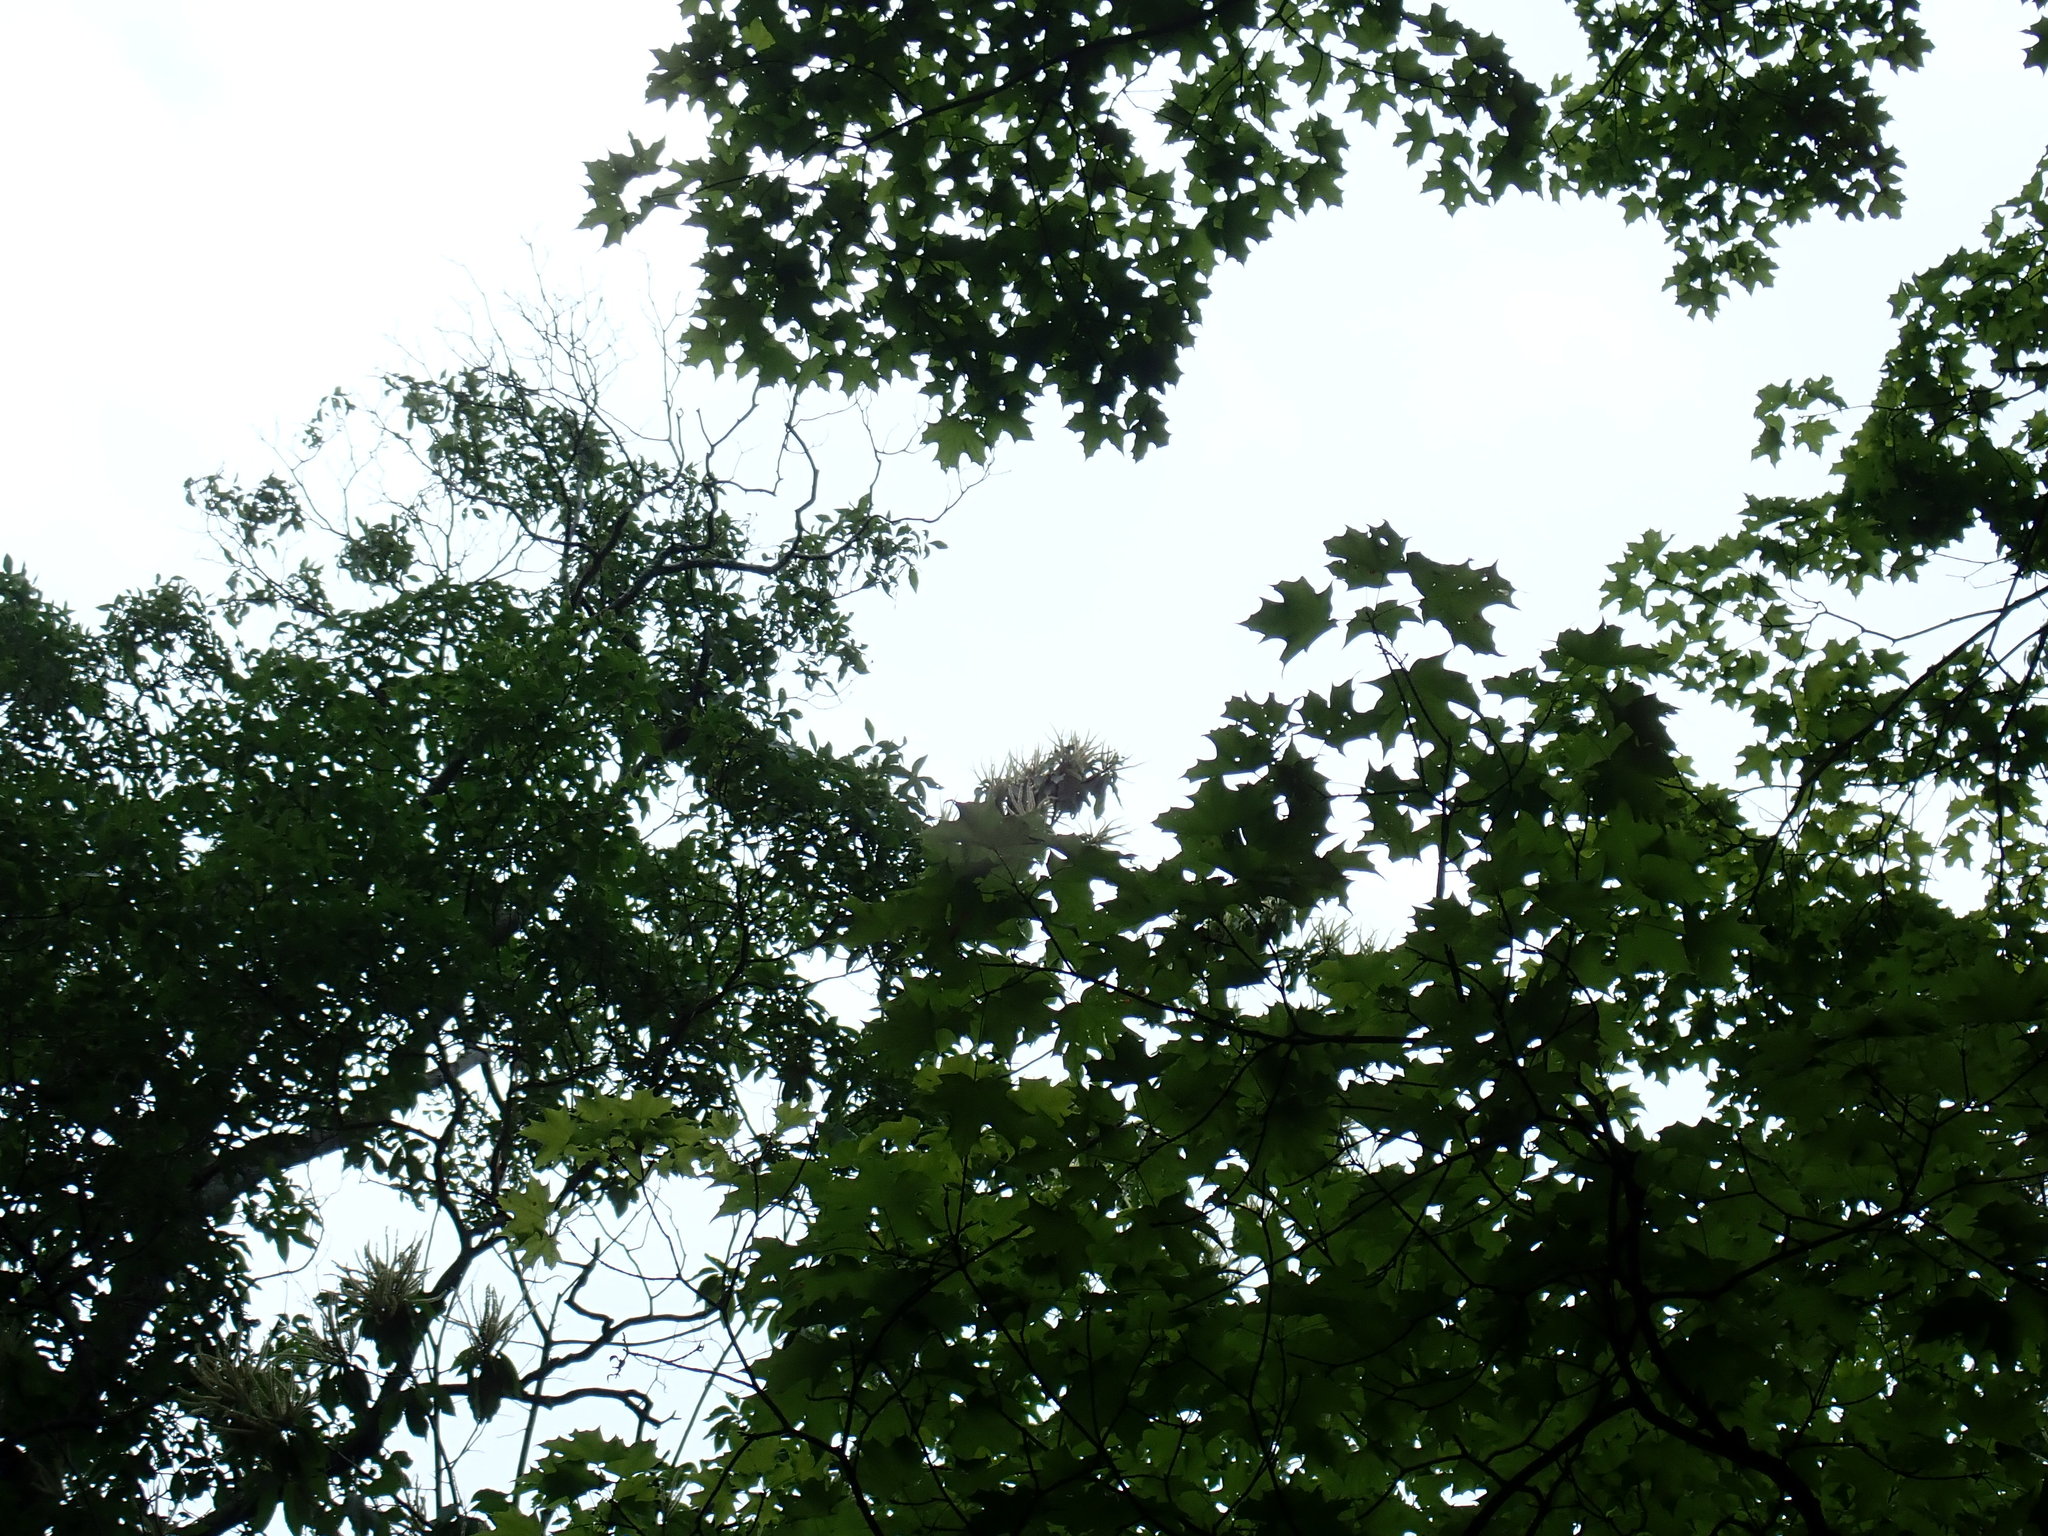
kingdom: Plantae
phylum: Tracheophyta
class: Magnoliopsida
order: Fagales
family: Fagaceae
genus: Castanea
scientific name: Castanea dentata
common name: American chestnut
